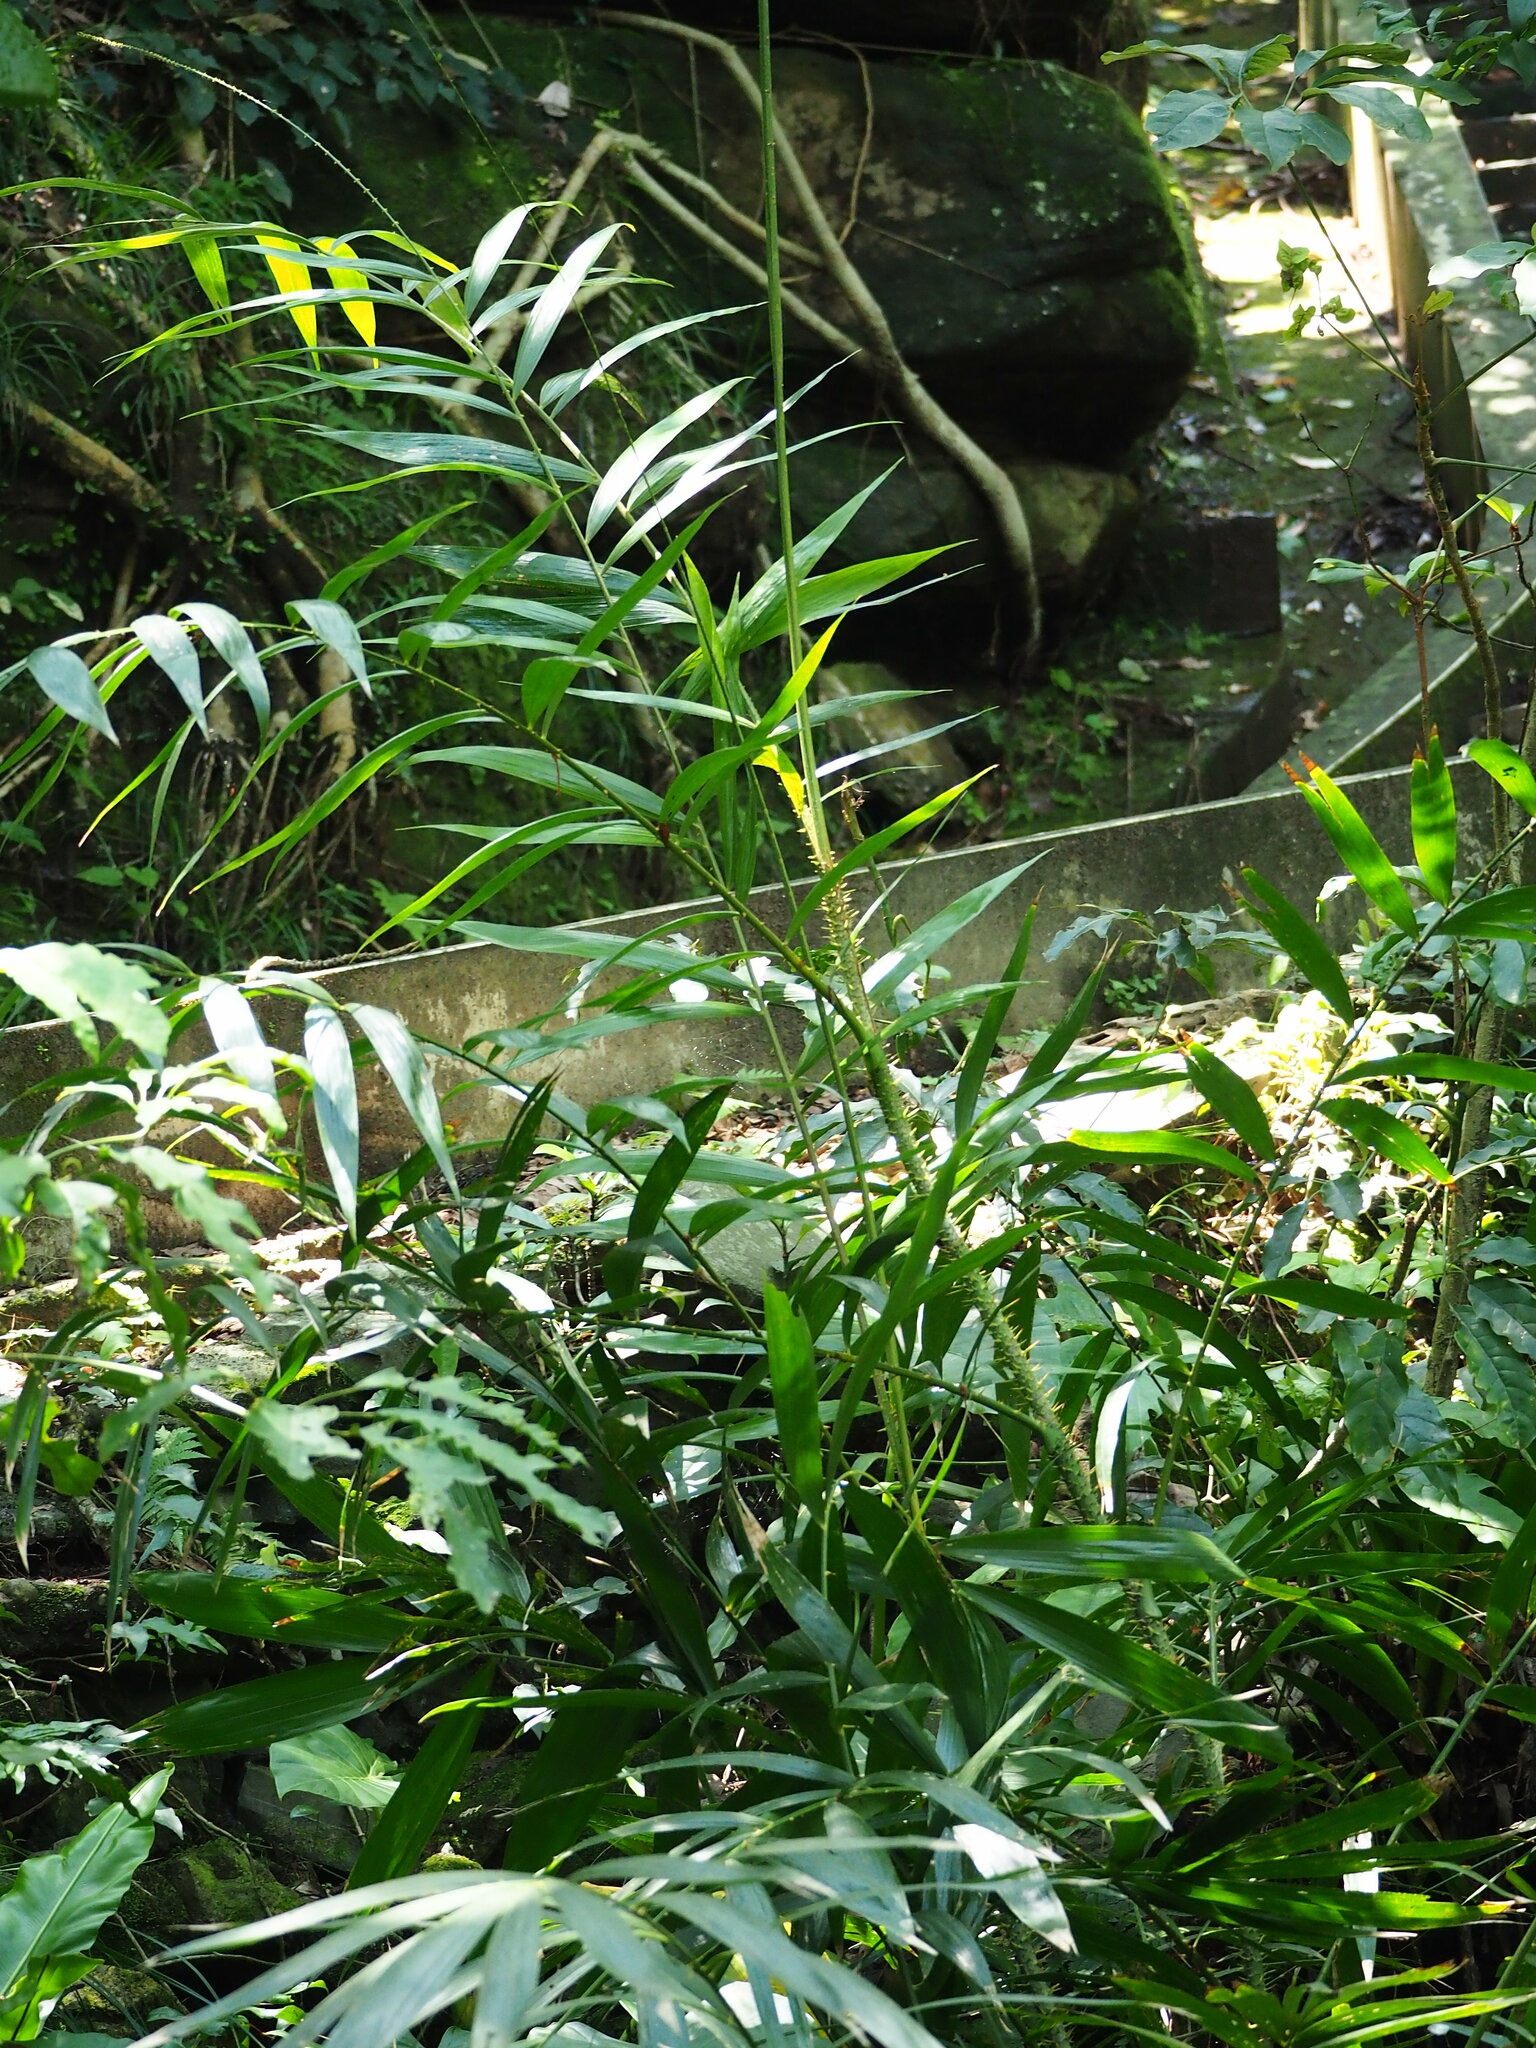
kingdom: Plantae
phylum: Tracheophyta
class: Liliopsida
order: Arecales
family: Arecaceae
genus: Calamus
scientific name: Calamus formosanus
